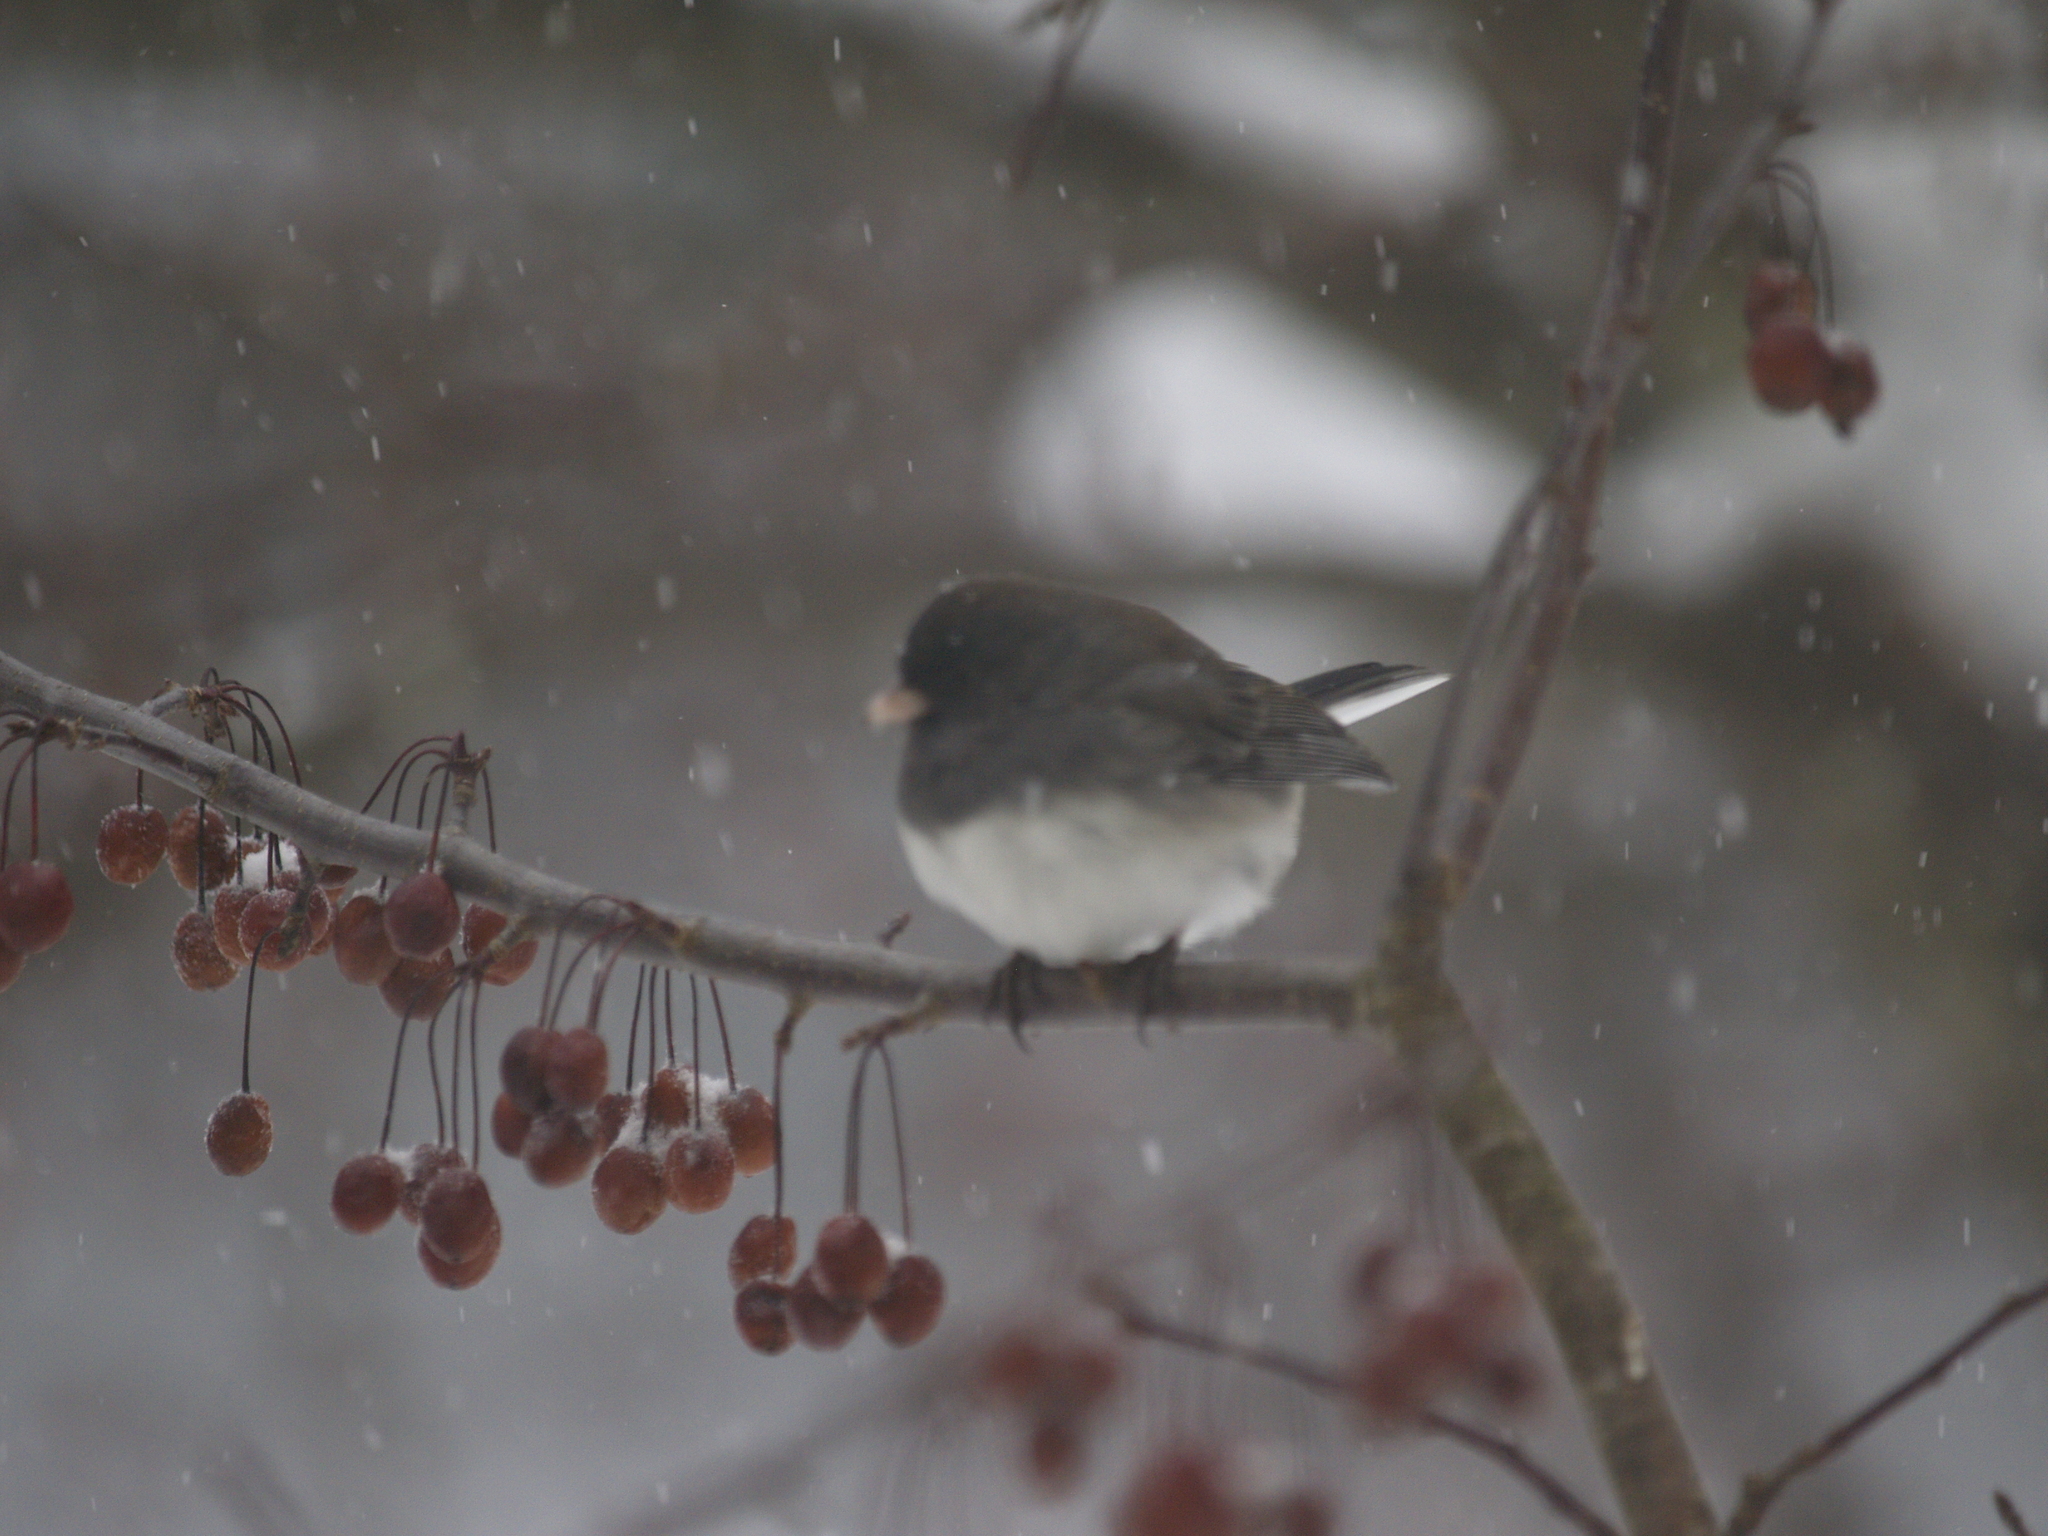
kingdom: Animalia
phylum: Chordata
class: Aves
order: Passeriformes
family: Passerellidae
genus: Junco
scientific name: Junco hyemalis
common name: Dark-eyed junco
